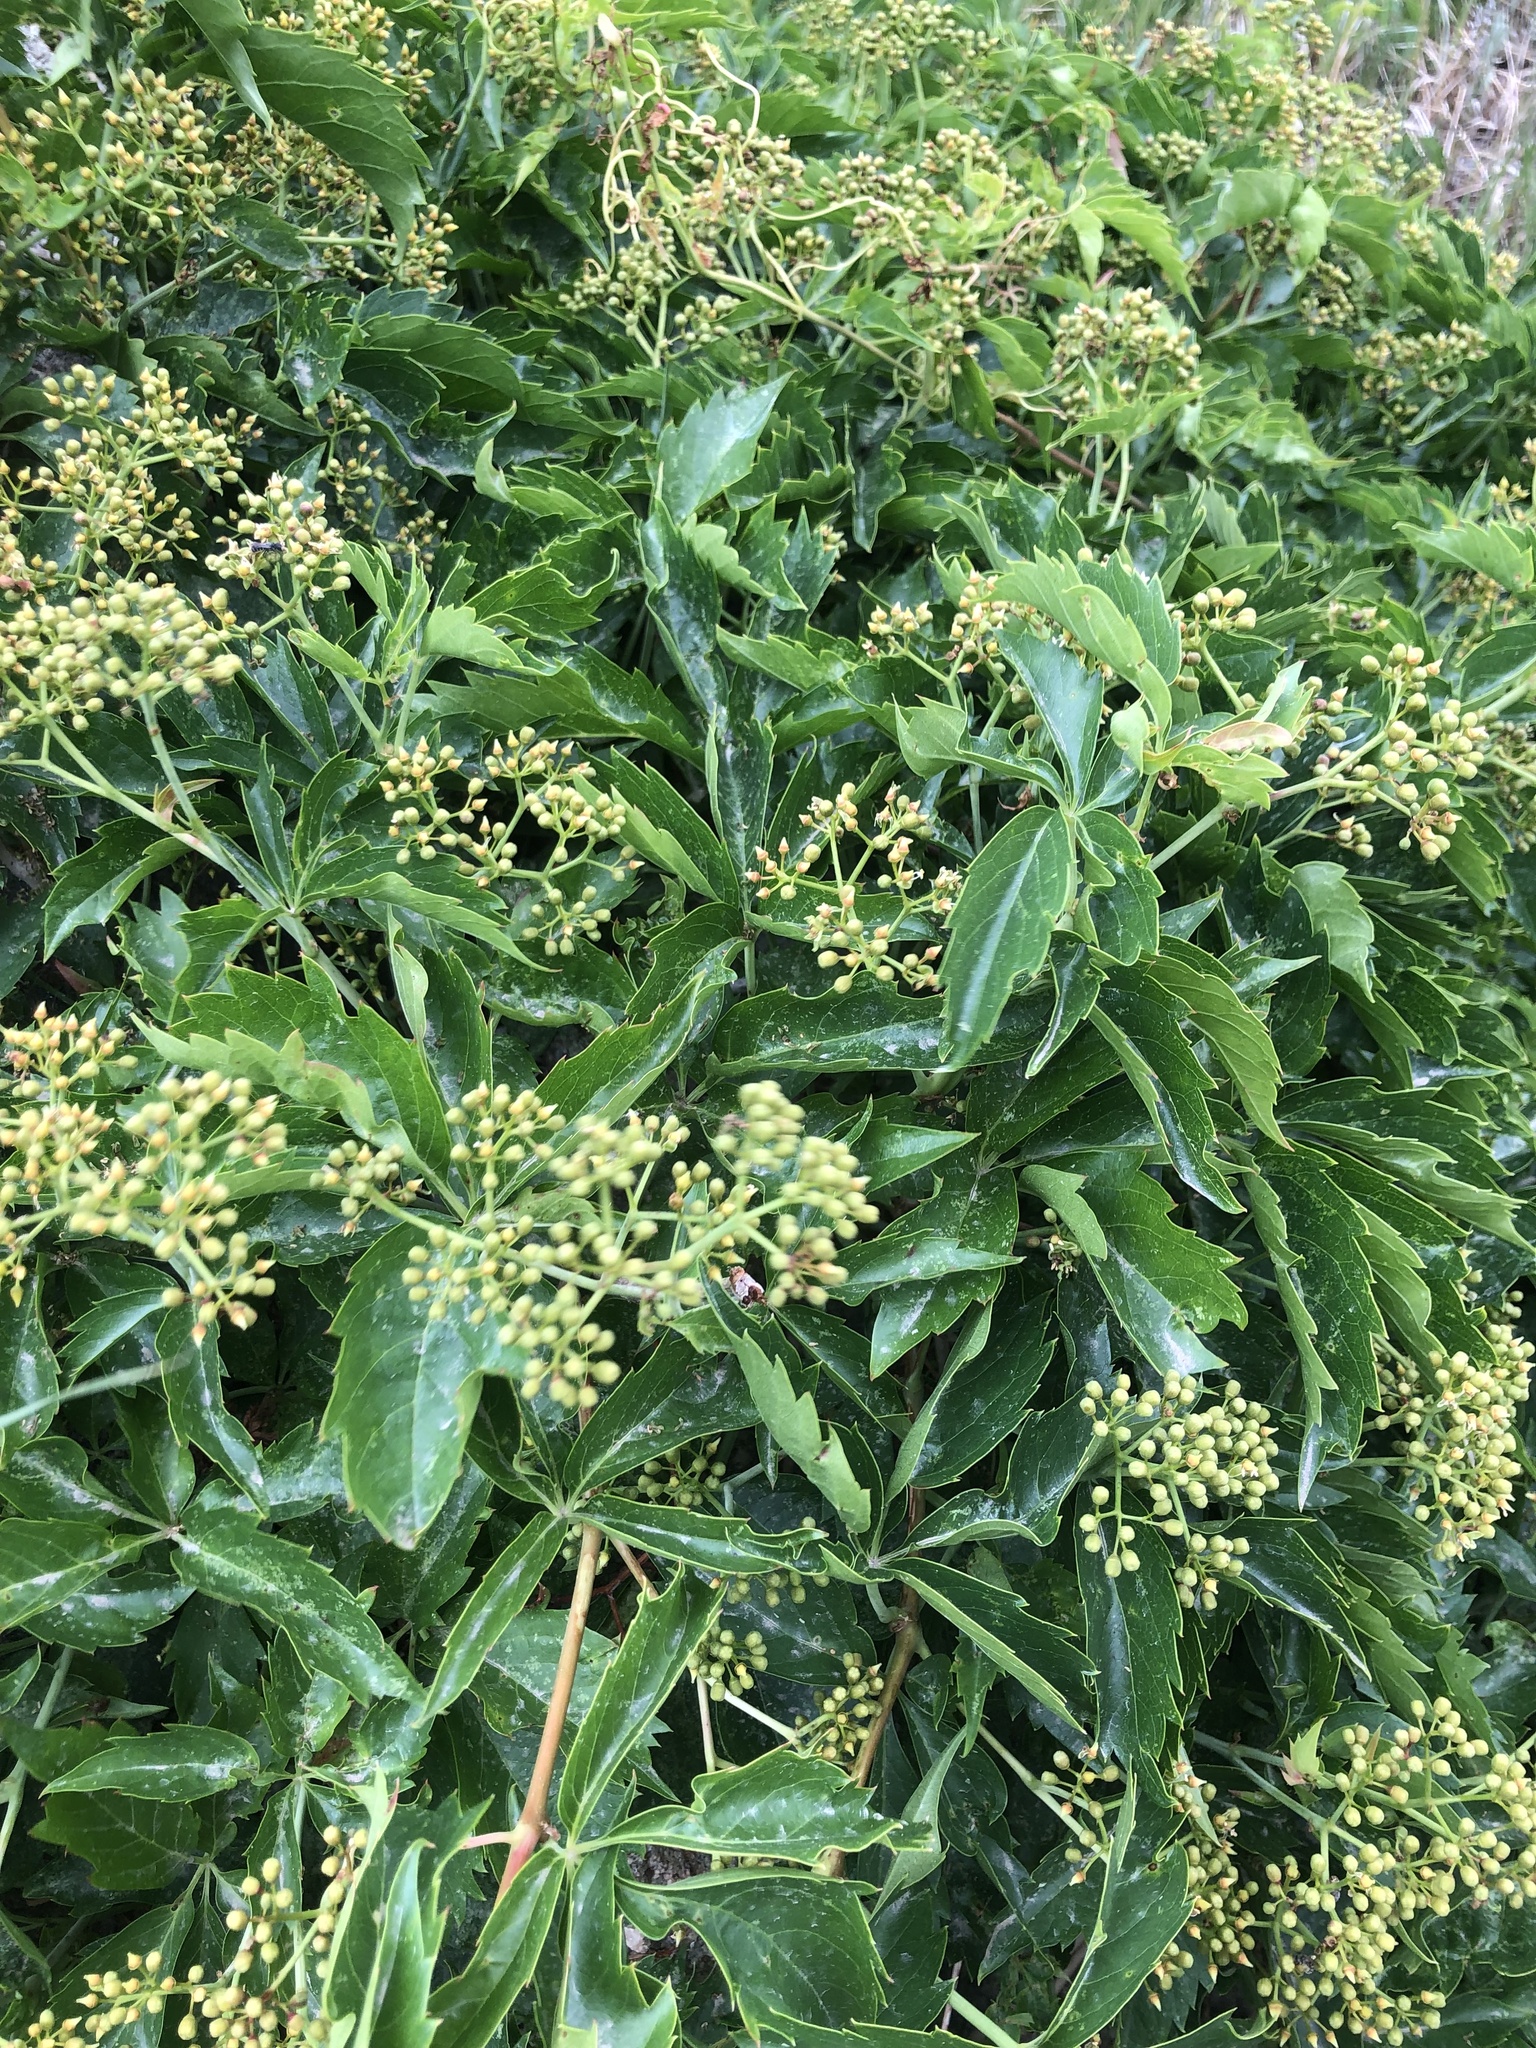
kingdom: Plantae
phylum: Tracheophyta
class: Magnoliopsida
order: Vitales
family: Vitaceae
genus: Parthenocissus
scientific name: Parthenocissus quinquefolia
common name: Virginia-creeper
